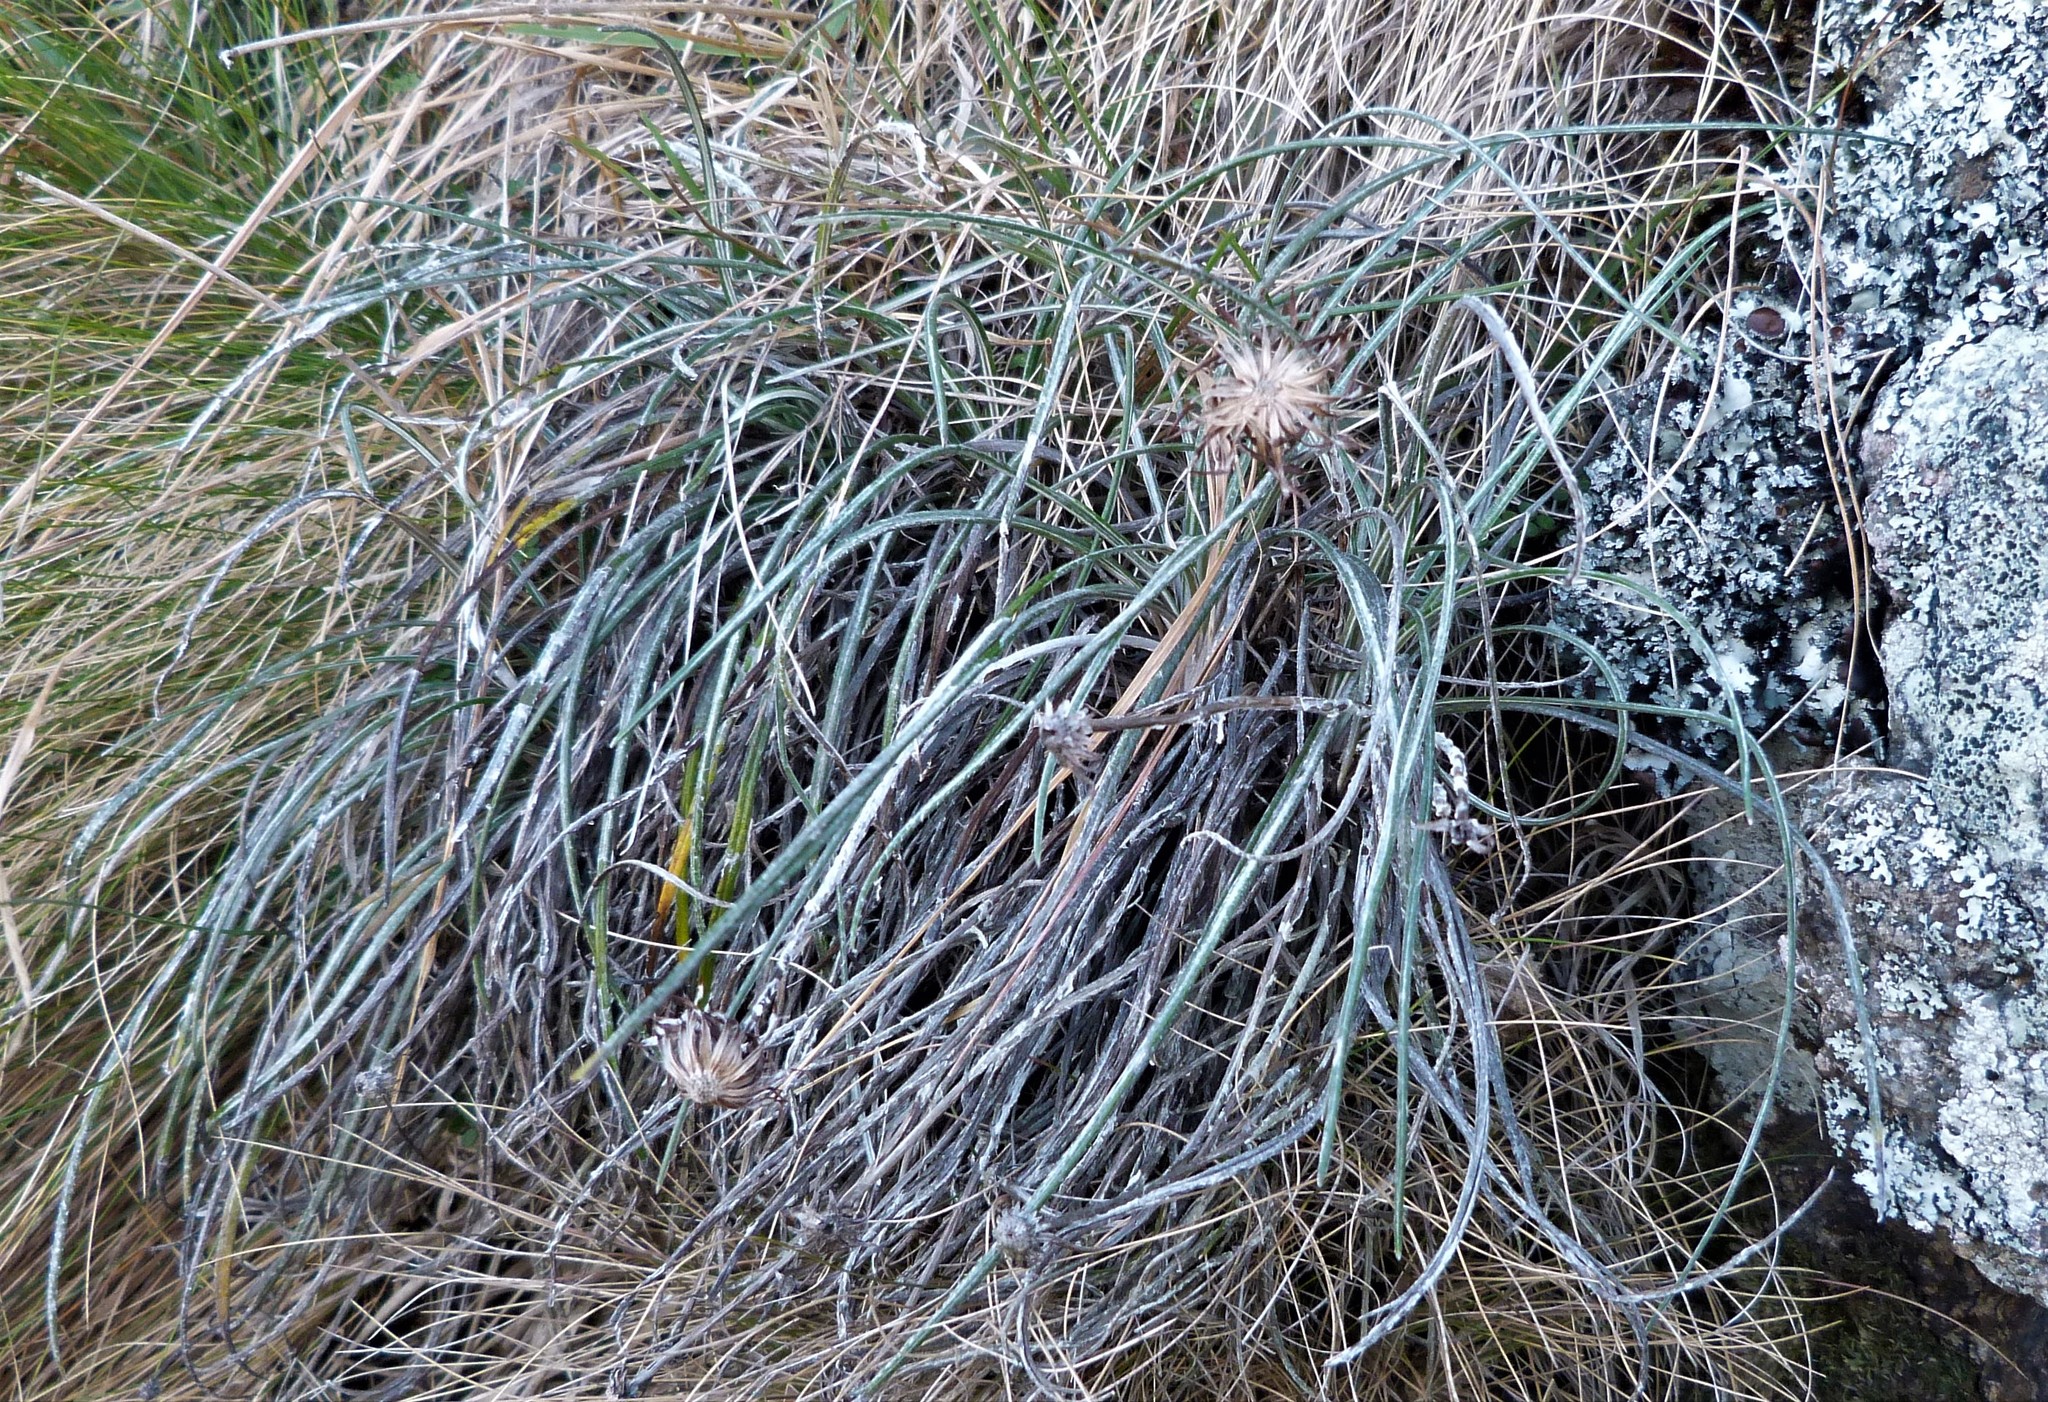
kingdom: Plantae
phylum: Tracheophyta
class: Magnoliopsida
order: Asterales
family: Asteraceae
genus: Celmisia
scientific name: Celmisia gracilenta
